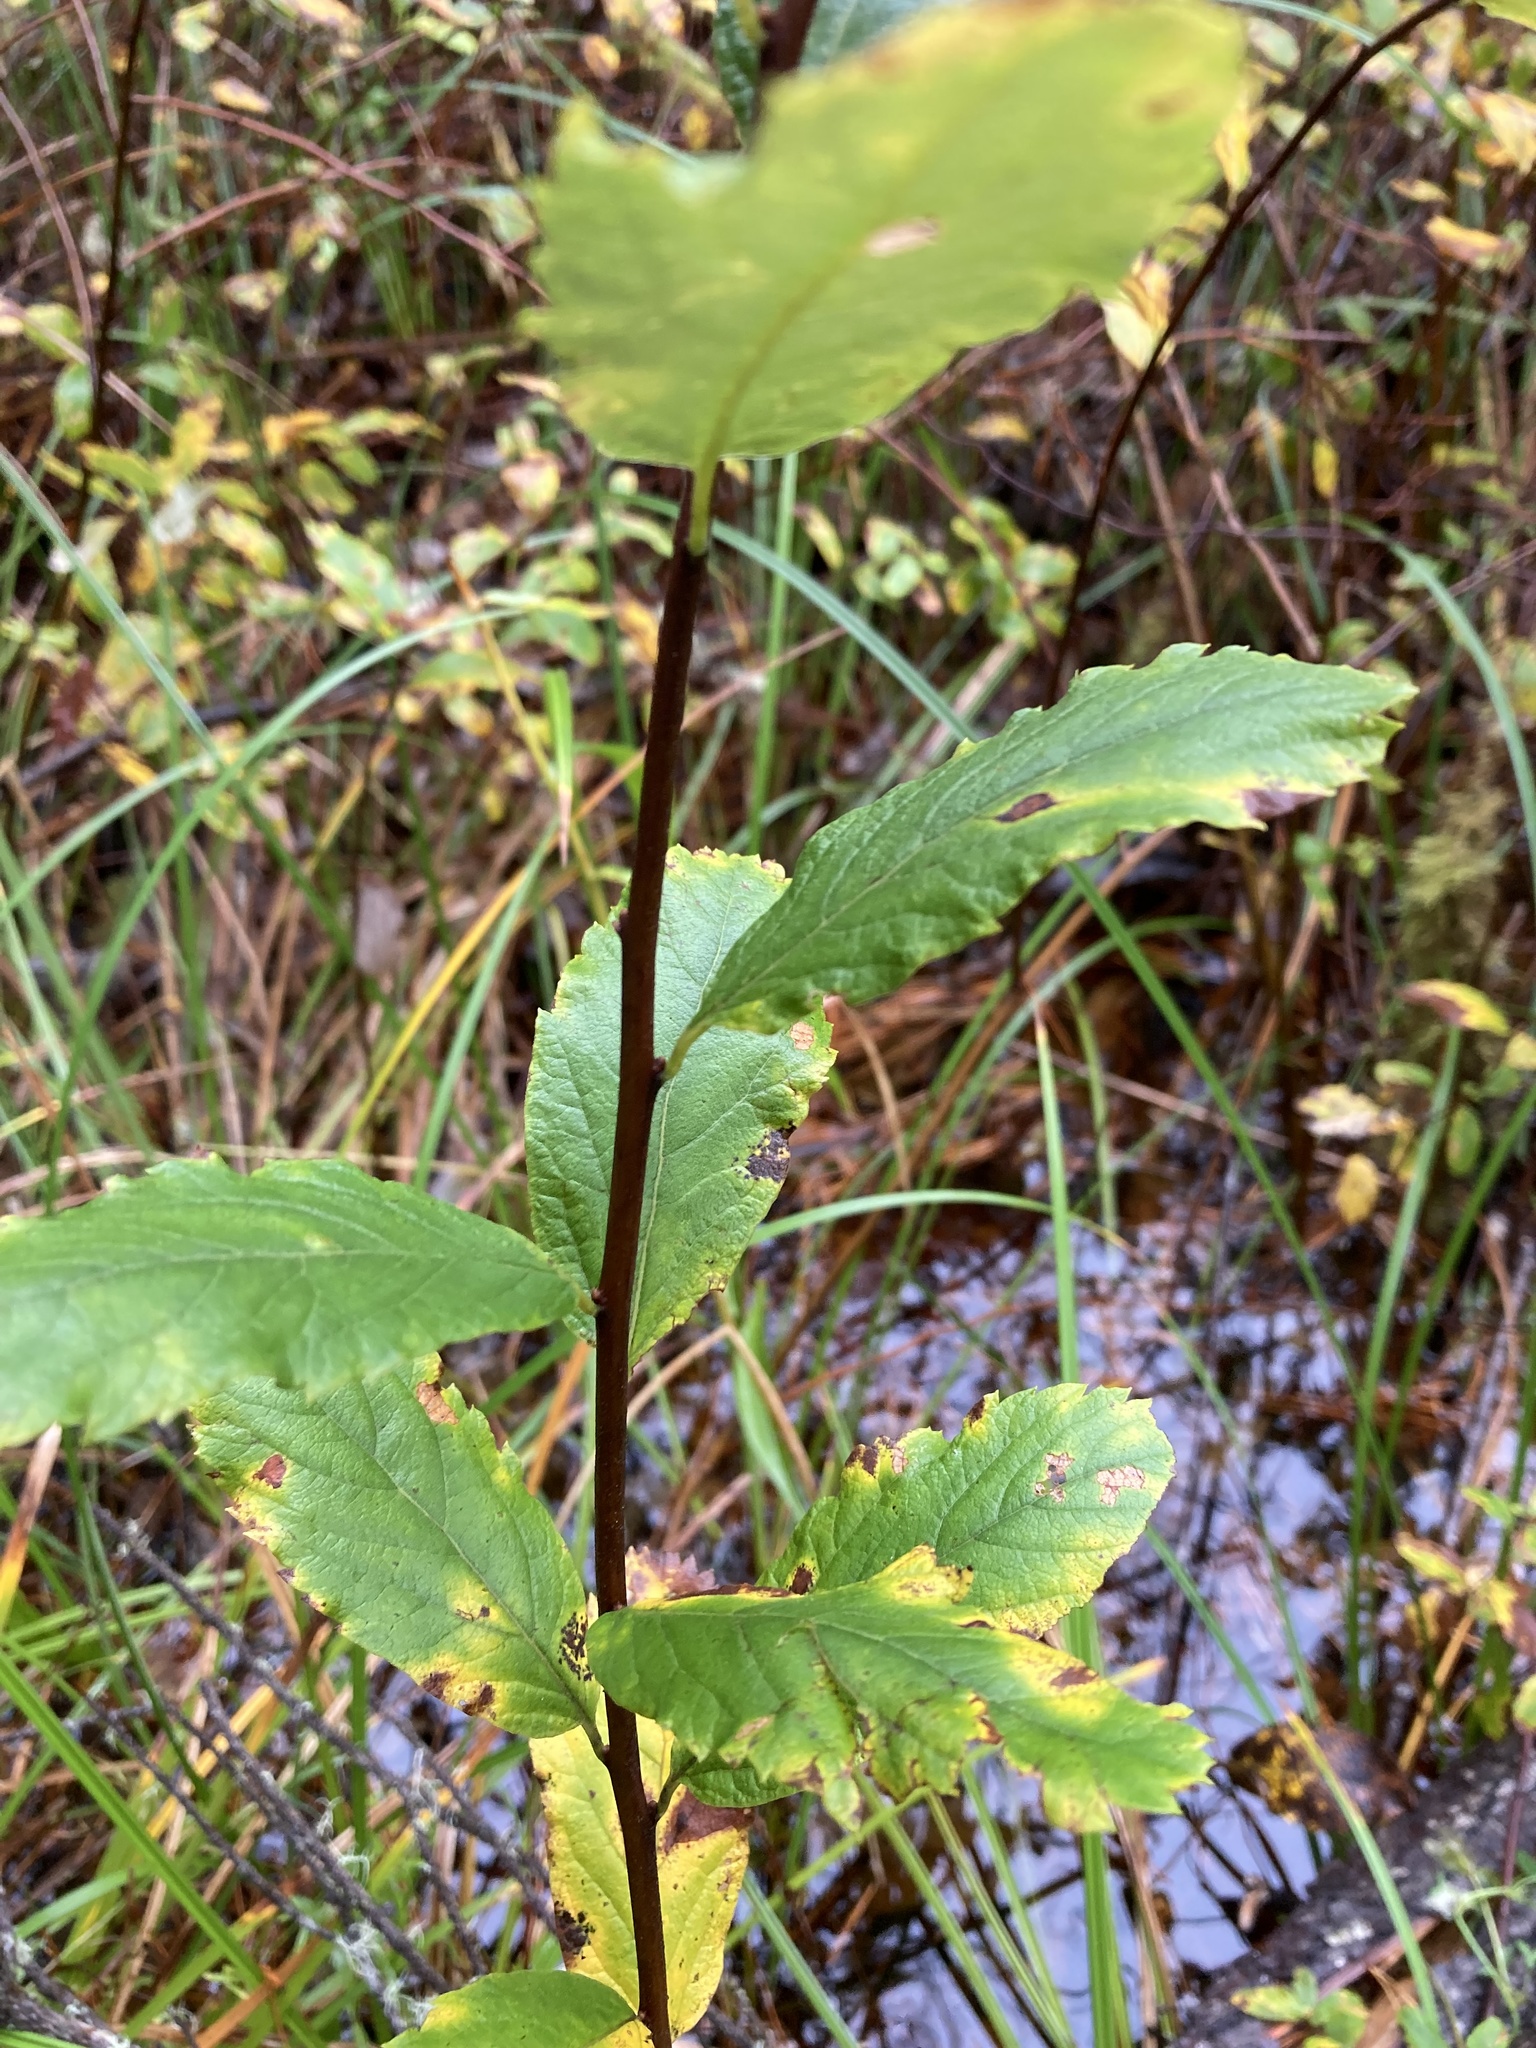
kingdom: Plantae
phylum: Tracheophyta
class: Magnoliopsida
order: Rosales
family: Rosaceae
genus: Spiraea
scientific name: Spiraea douglasii
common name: Steeplebush
